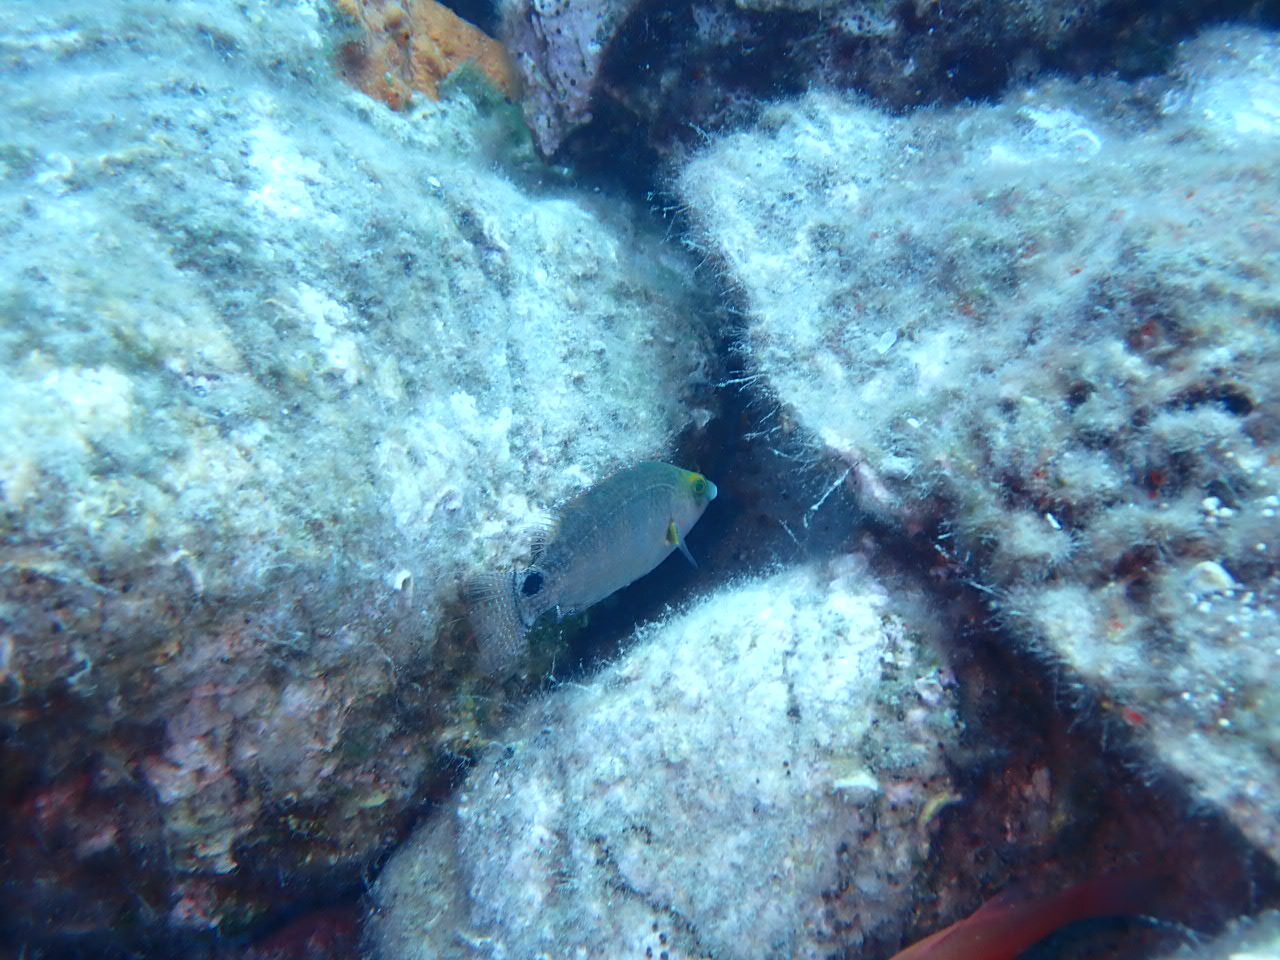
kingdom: Animalia
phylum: Chordata
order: Perciformes
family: Labridae
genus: Symphodus
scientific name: Symphodus mediterraneus
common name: Axillary wrasse
